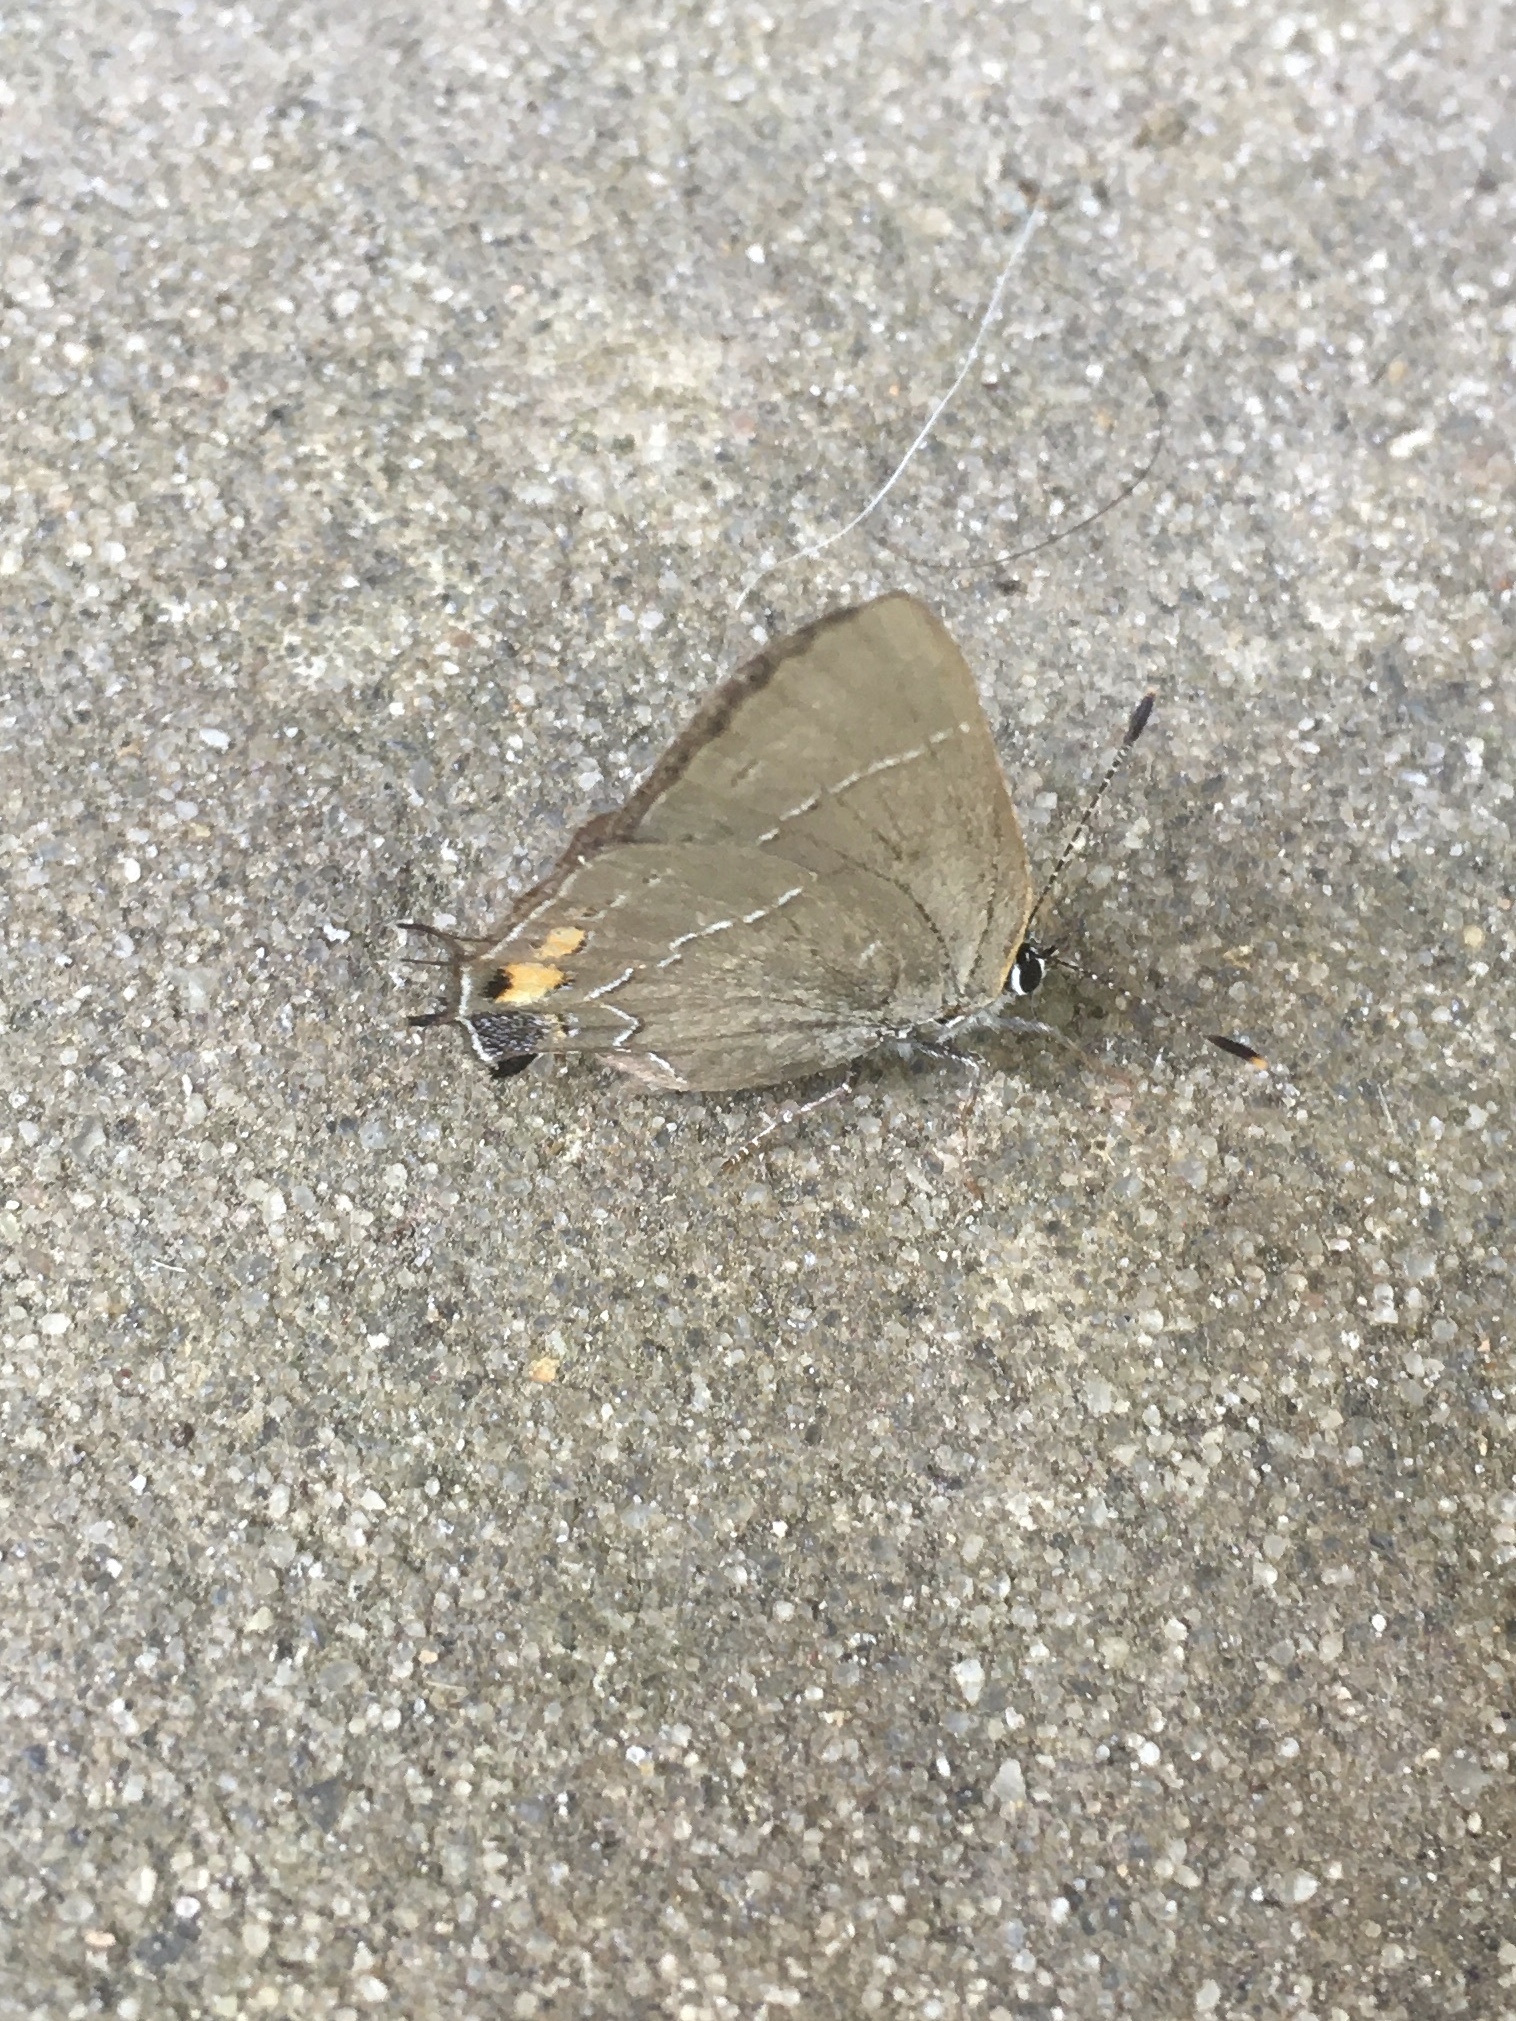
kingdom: Animalia
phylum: Arthropoda
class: Insecta
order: Lepidoptera
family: Lycaenidae
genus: Fixsenia
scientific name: Fixsenia ontario
